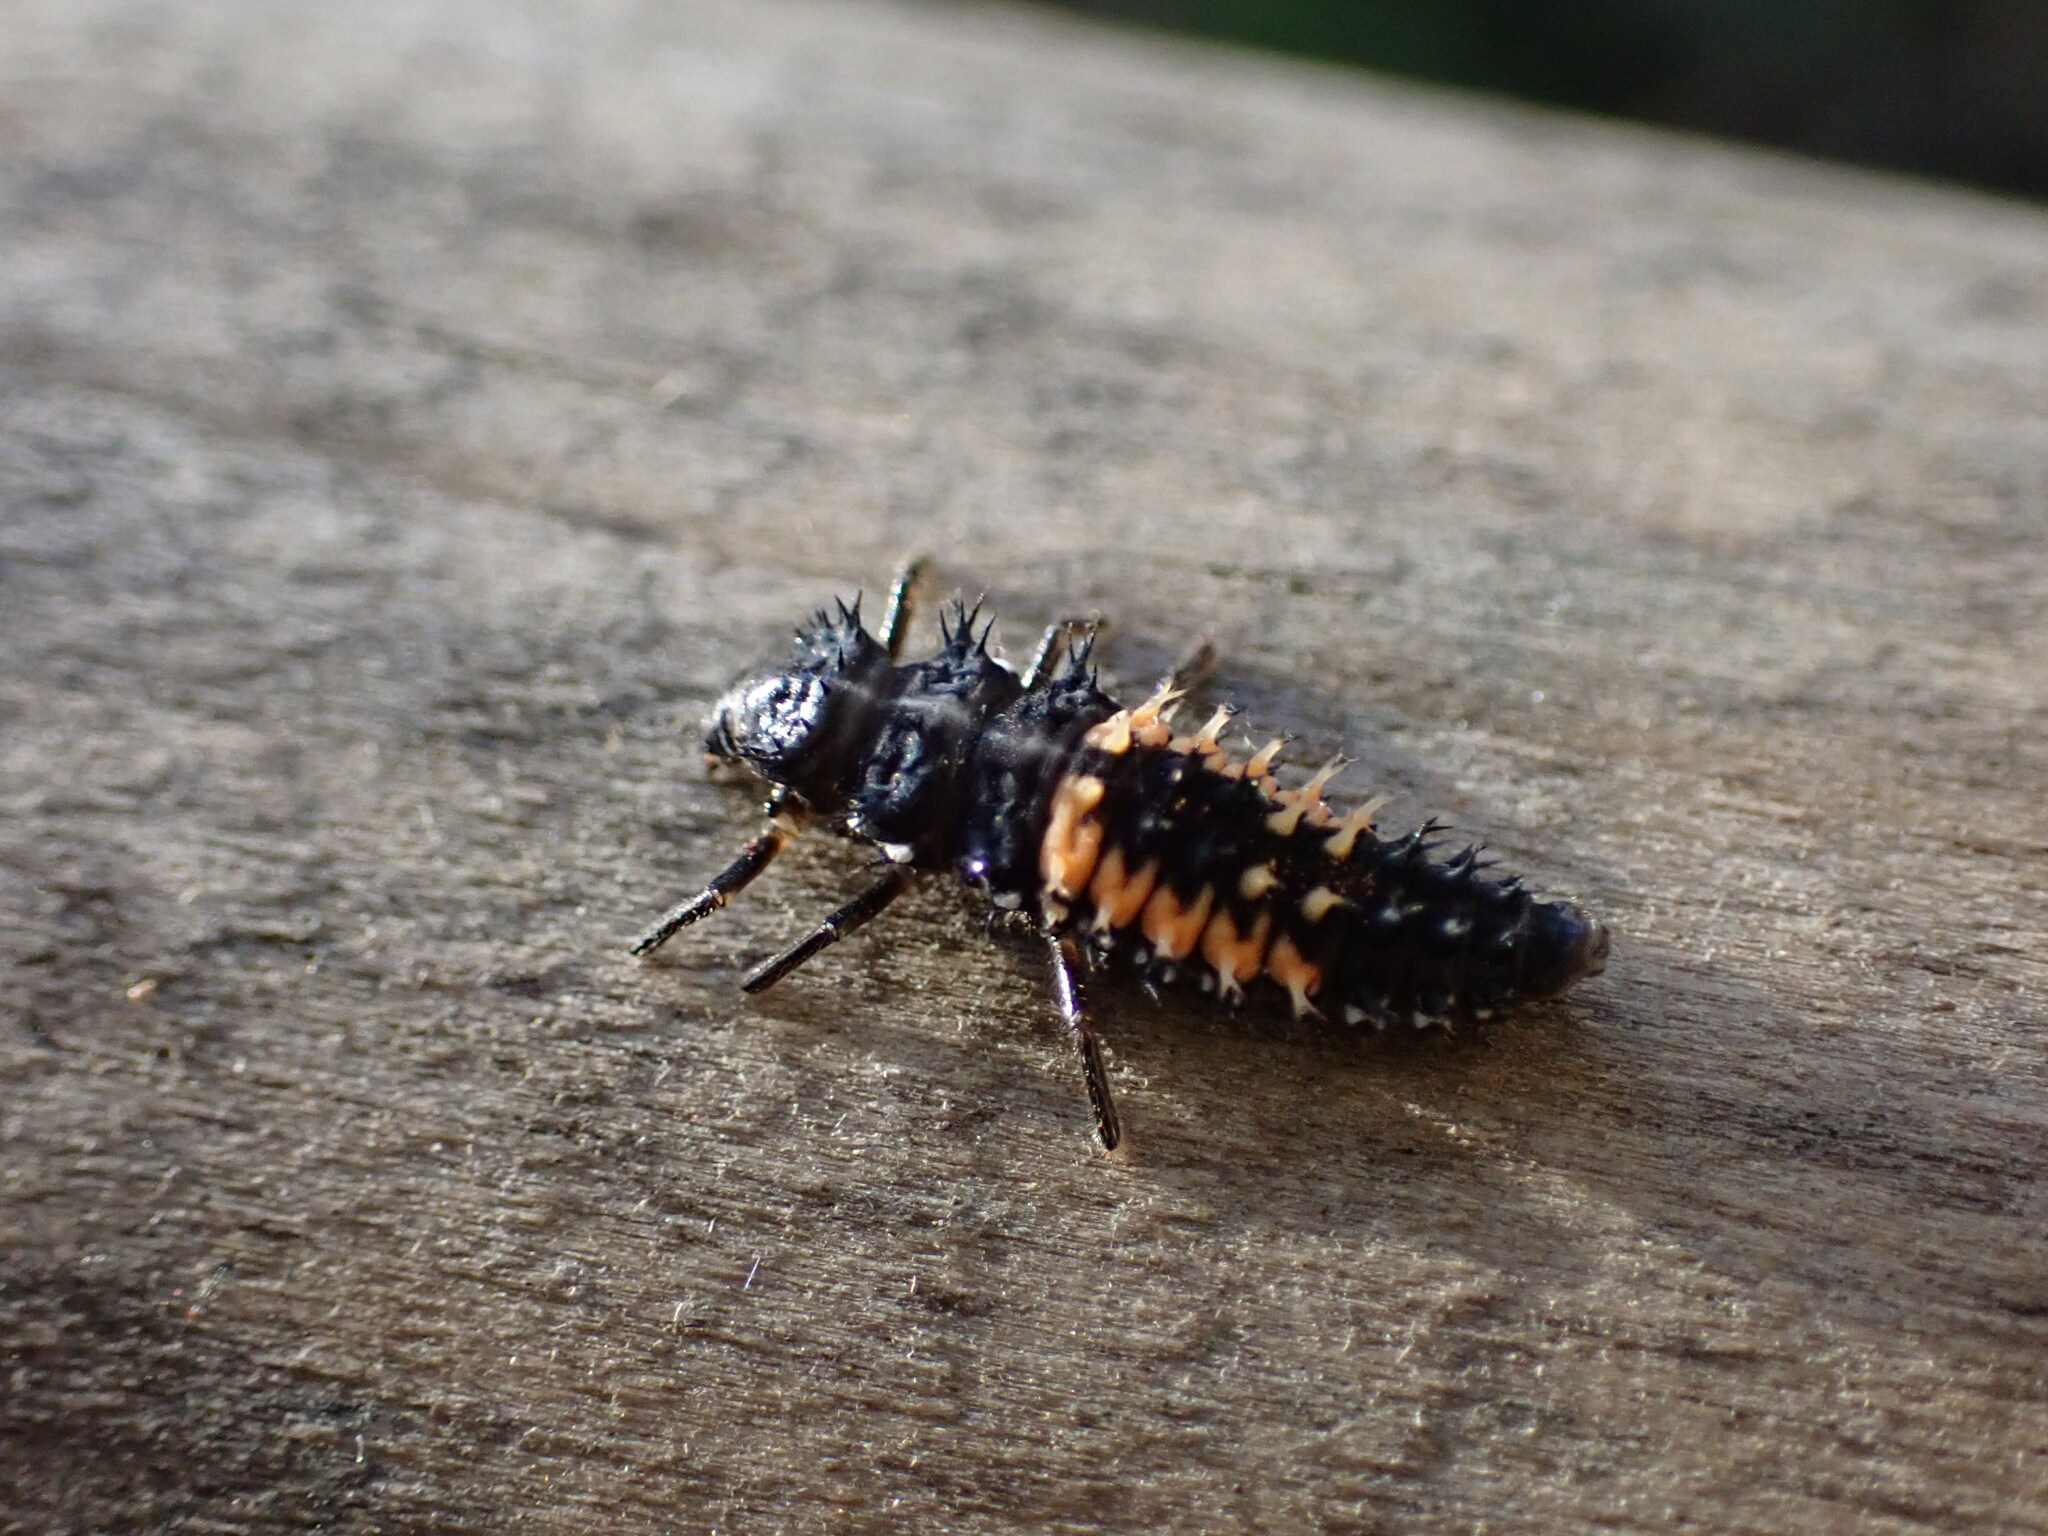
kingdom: Animalia
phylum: Arthropoda
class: Insecta
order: Coleoptera
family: Coccinellidae
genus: Harmonia
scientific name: Harmonia axyridis
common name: Harlequin ladybird
